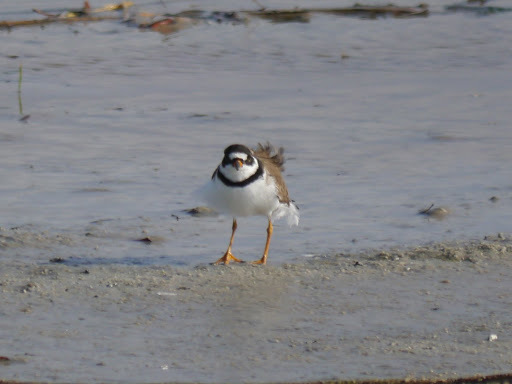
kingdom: Animalia
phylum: Chordata
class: Aves
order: Charadriiformes
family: Charadriidae
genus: Charadrius
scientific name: Charadrius semipalmatus
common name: Semipalmated plover
